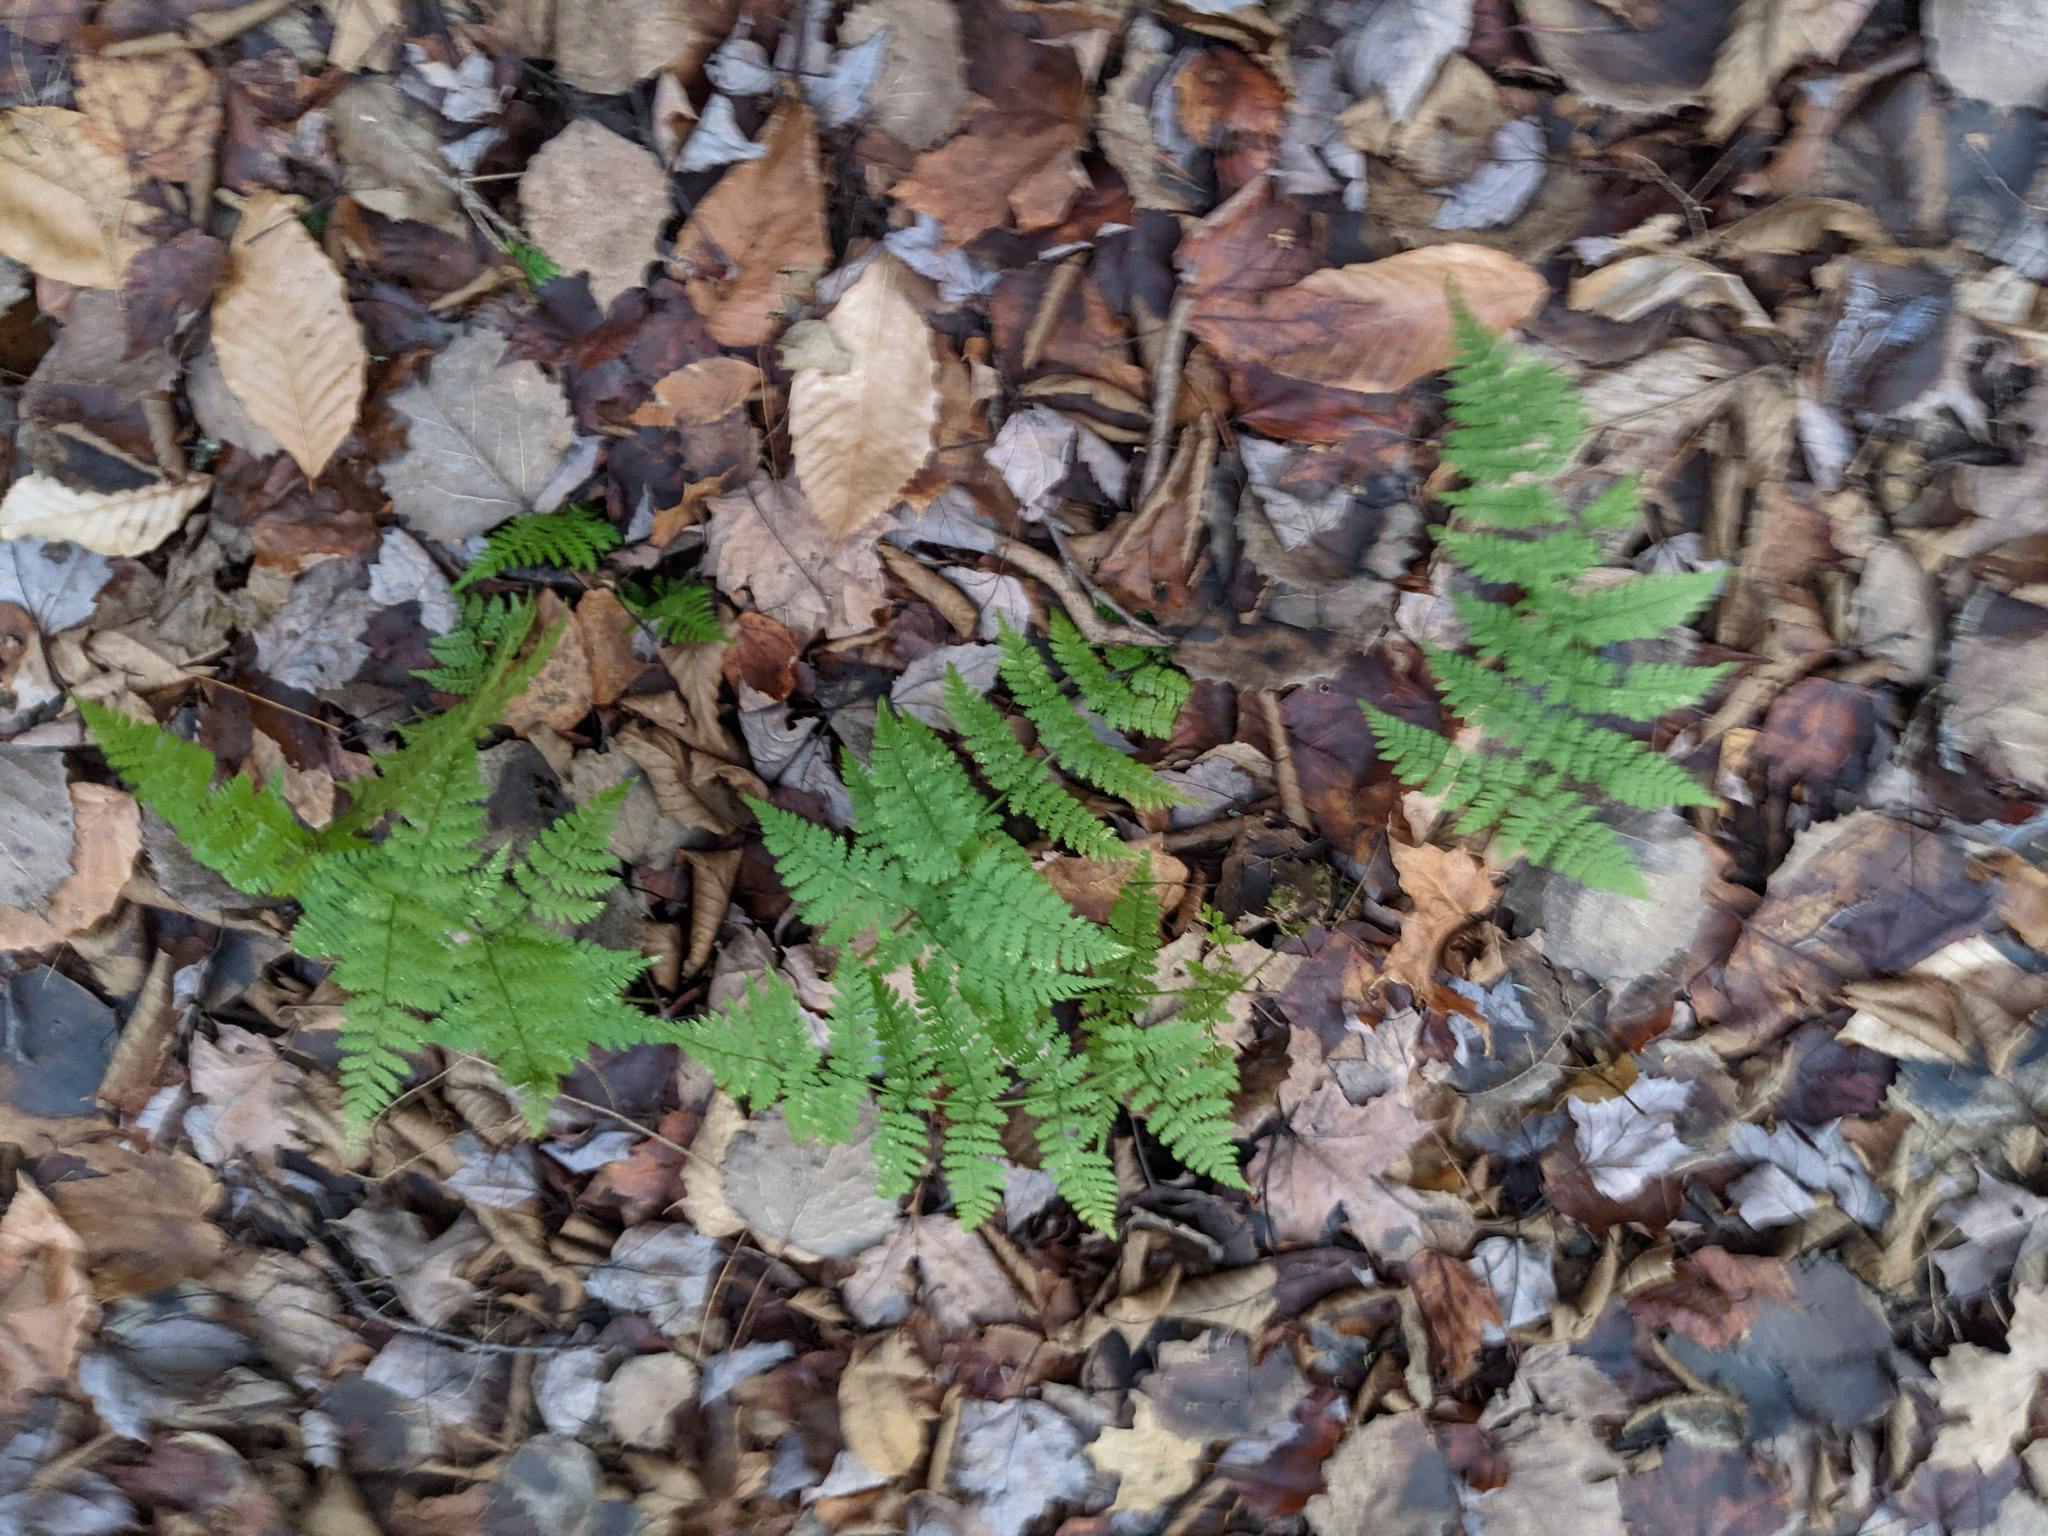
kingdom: Plantae
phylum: Tracheophyta
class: Polypodiopsida
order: Polypodiales
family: Dryopteridaceae
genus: Dryopteris
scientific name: Dryopteris intermedia
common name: Evergreen wood fern
